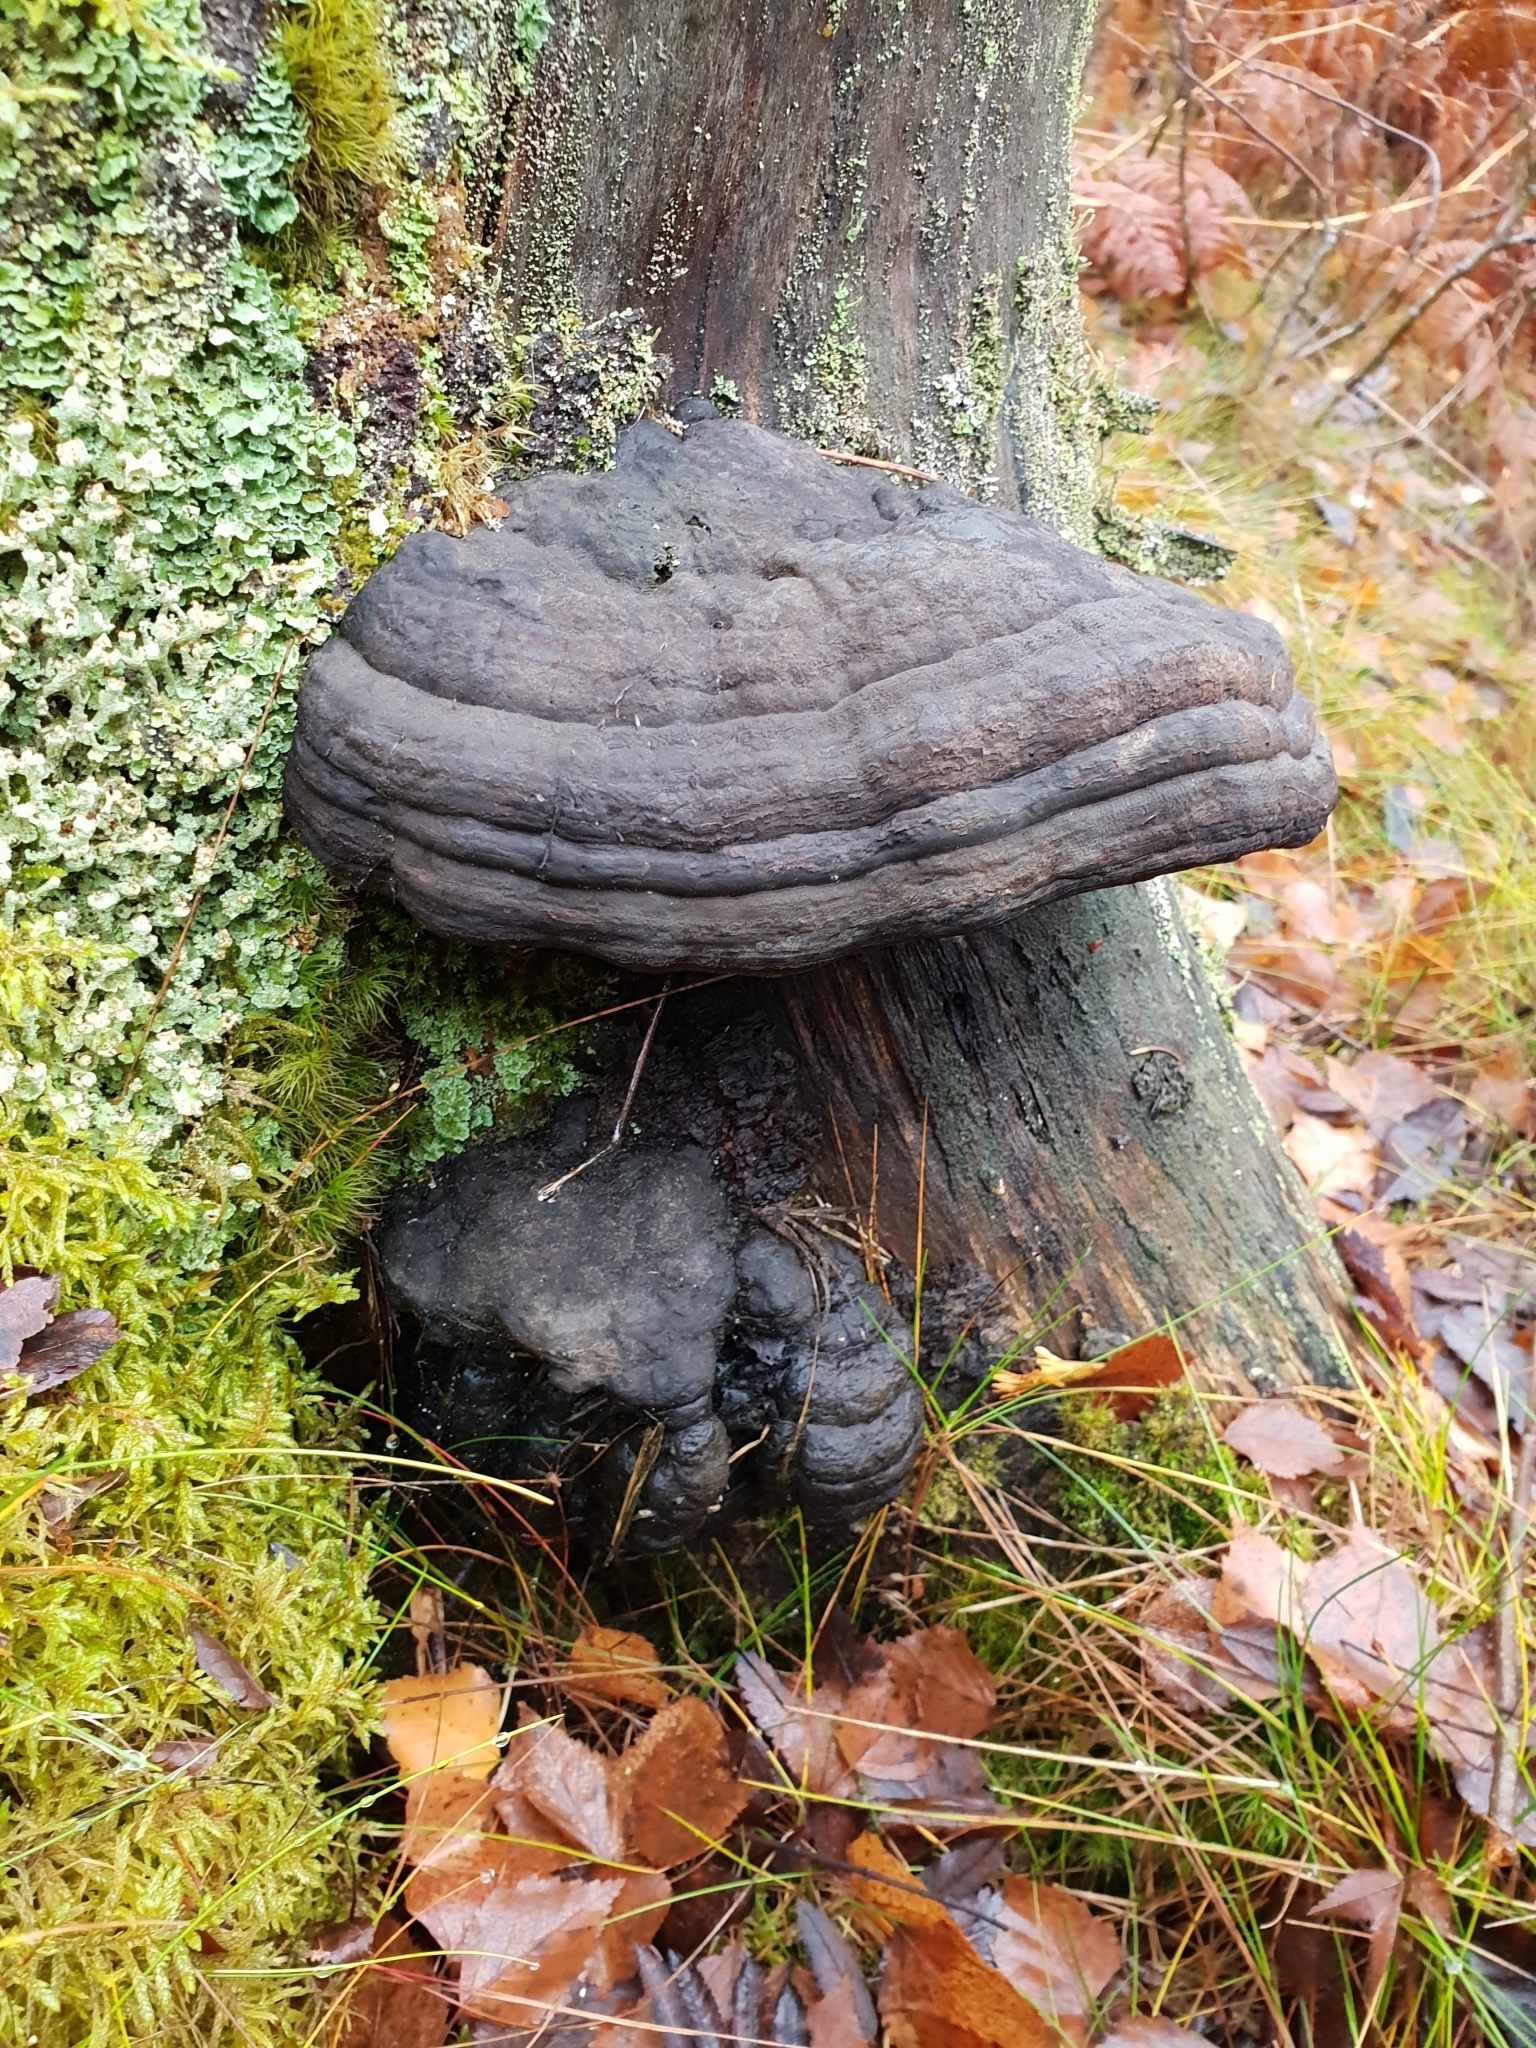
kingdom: Fungi
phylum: Basidiomycota
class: Agaricomycetes
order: Polyporales
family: Polyporaceae
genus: Fomes
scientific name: Fomes fomentarius
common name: Hoof fungus
